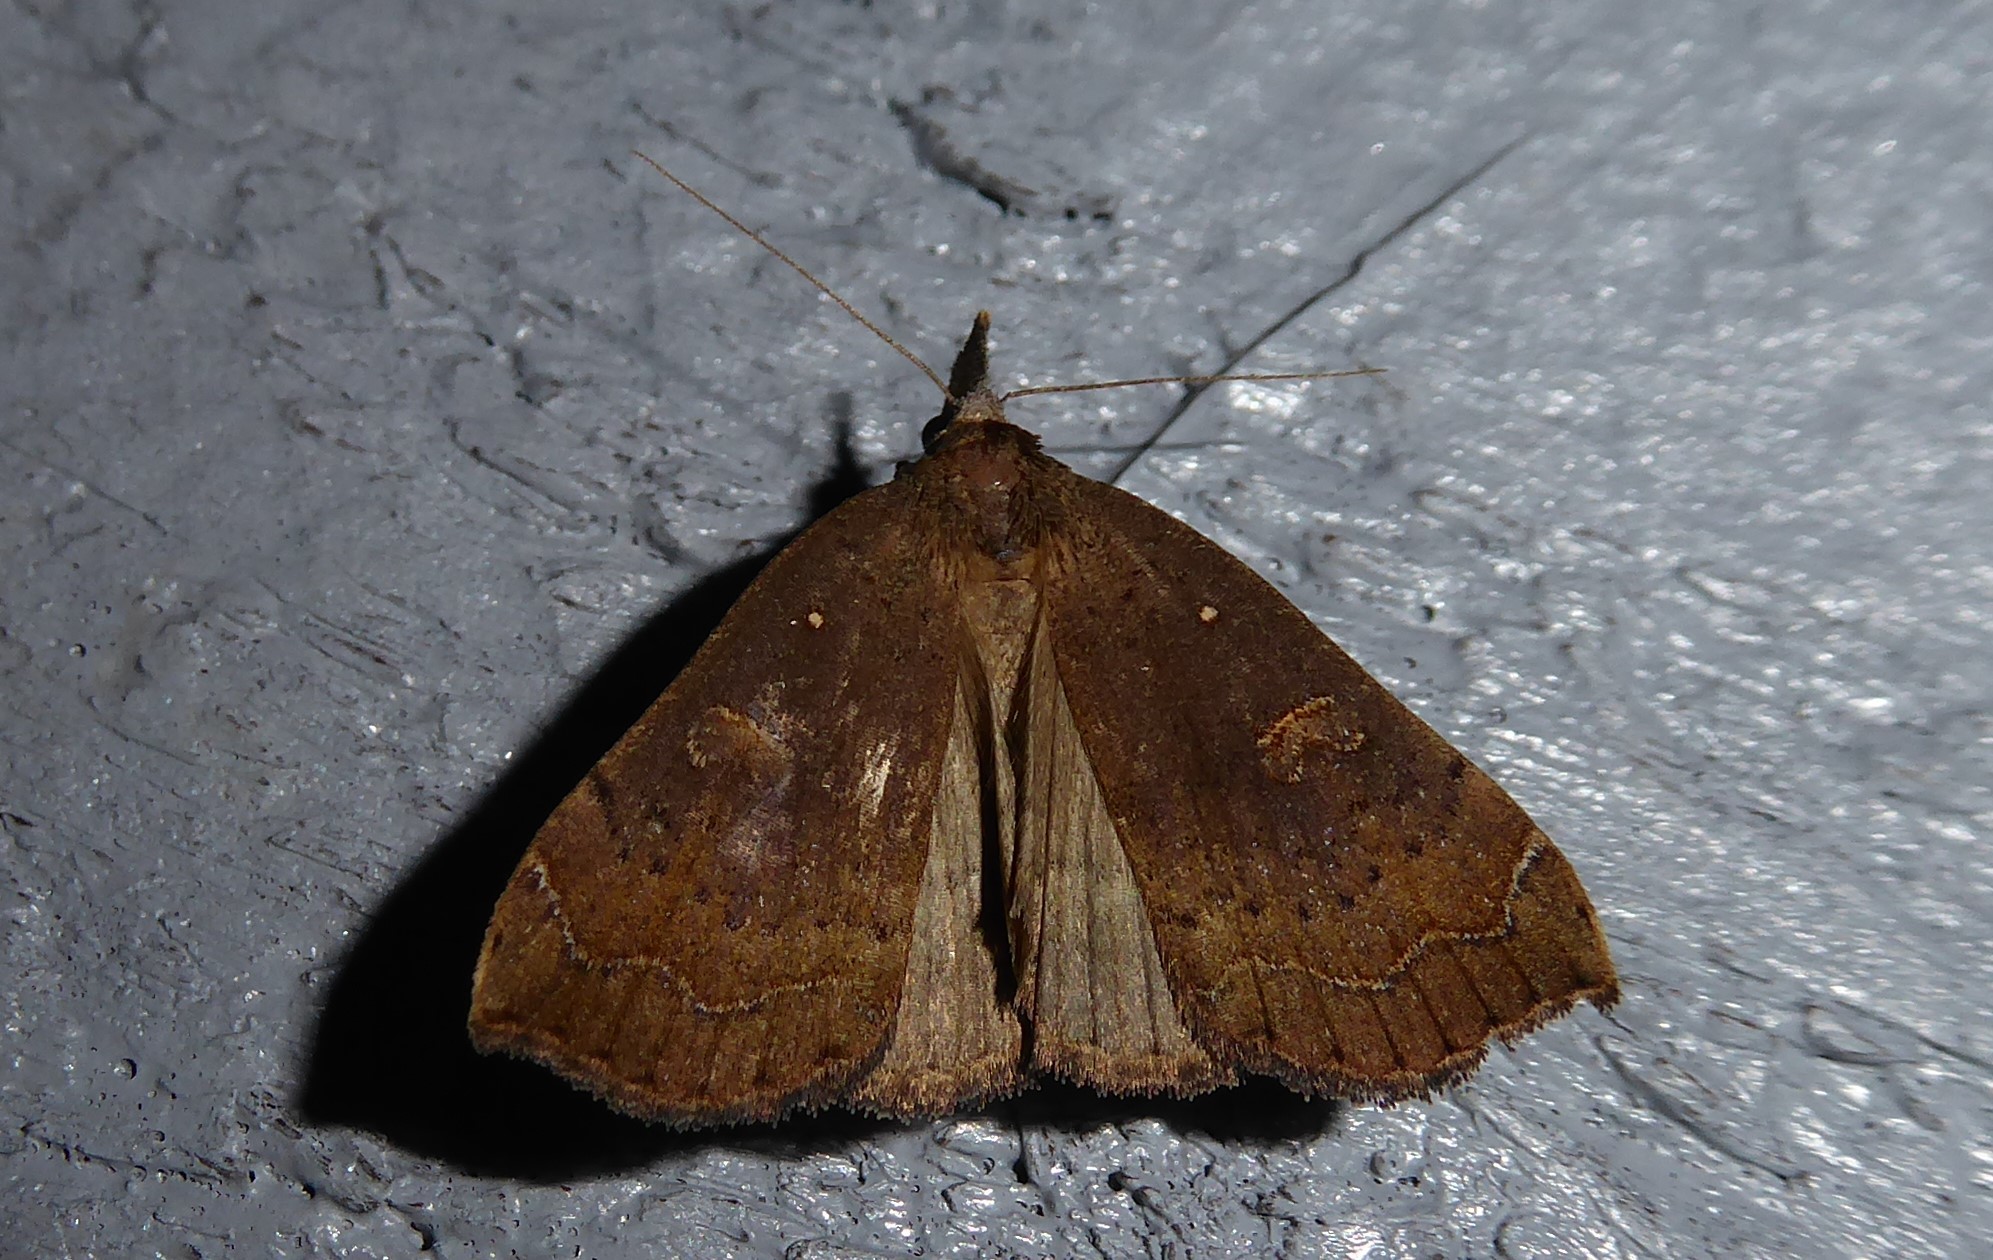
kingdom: Animalia
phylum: Arthropoda
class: Insecta
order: Lepidoptera
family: Erebidae
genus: Rhapsa
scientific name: Rhapsa scotosialis
